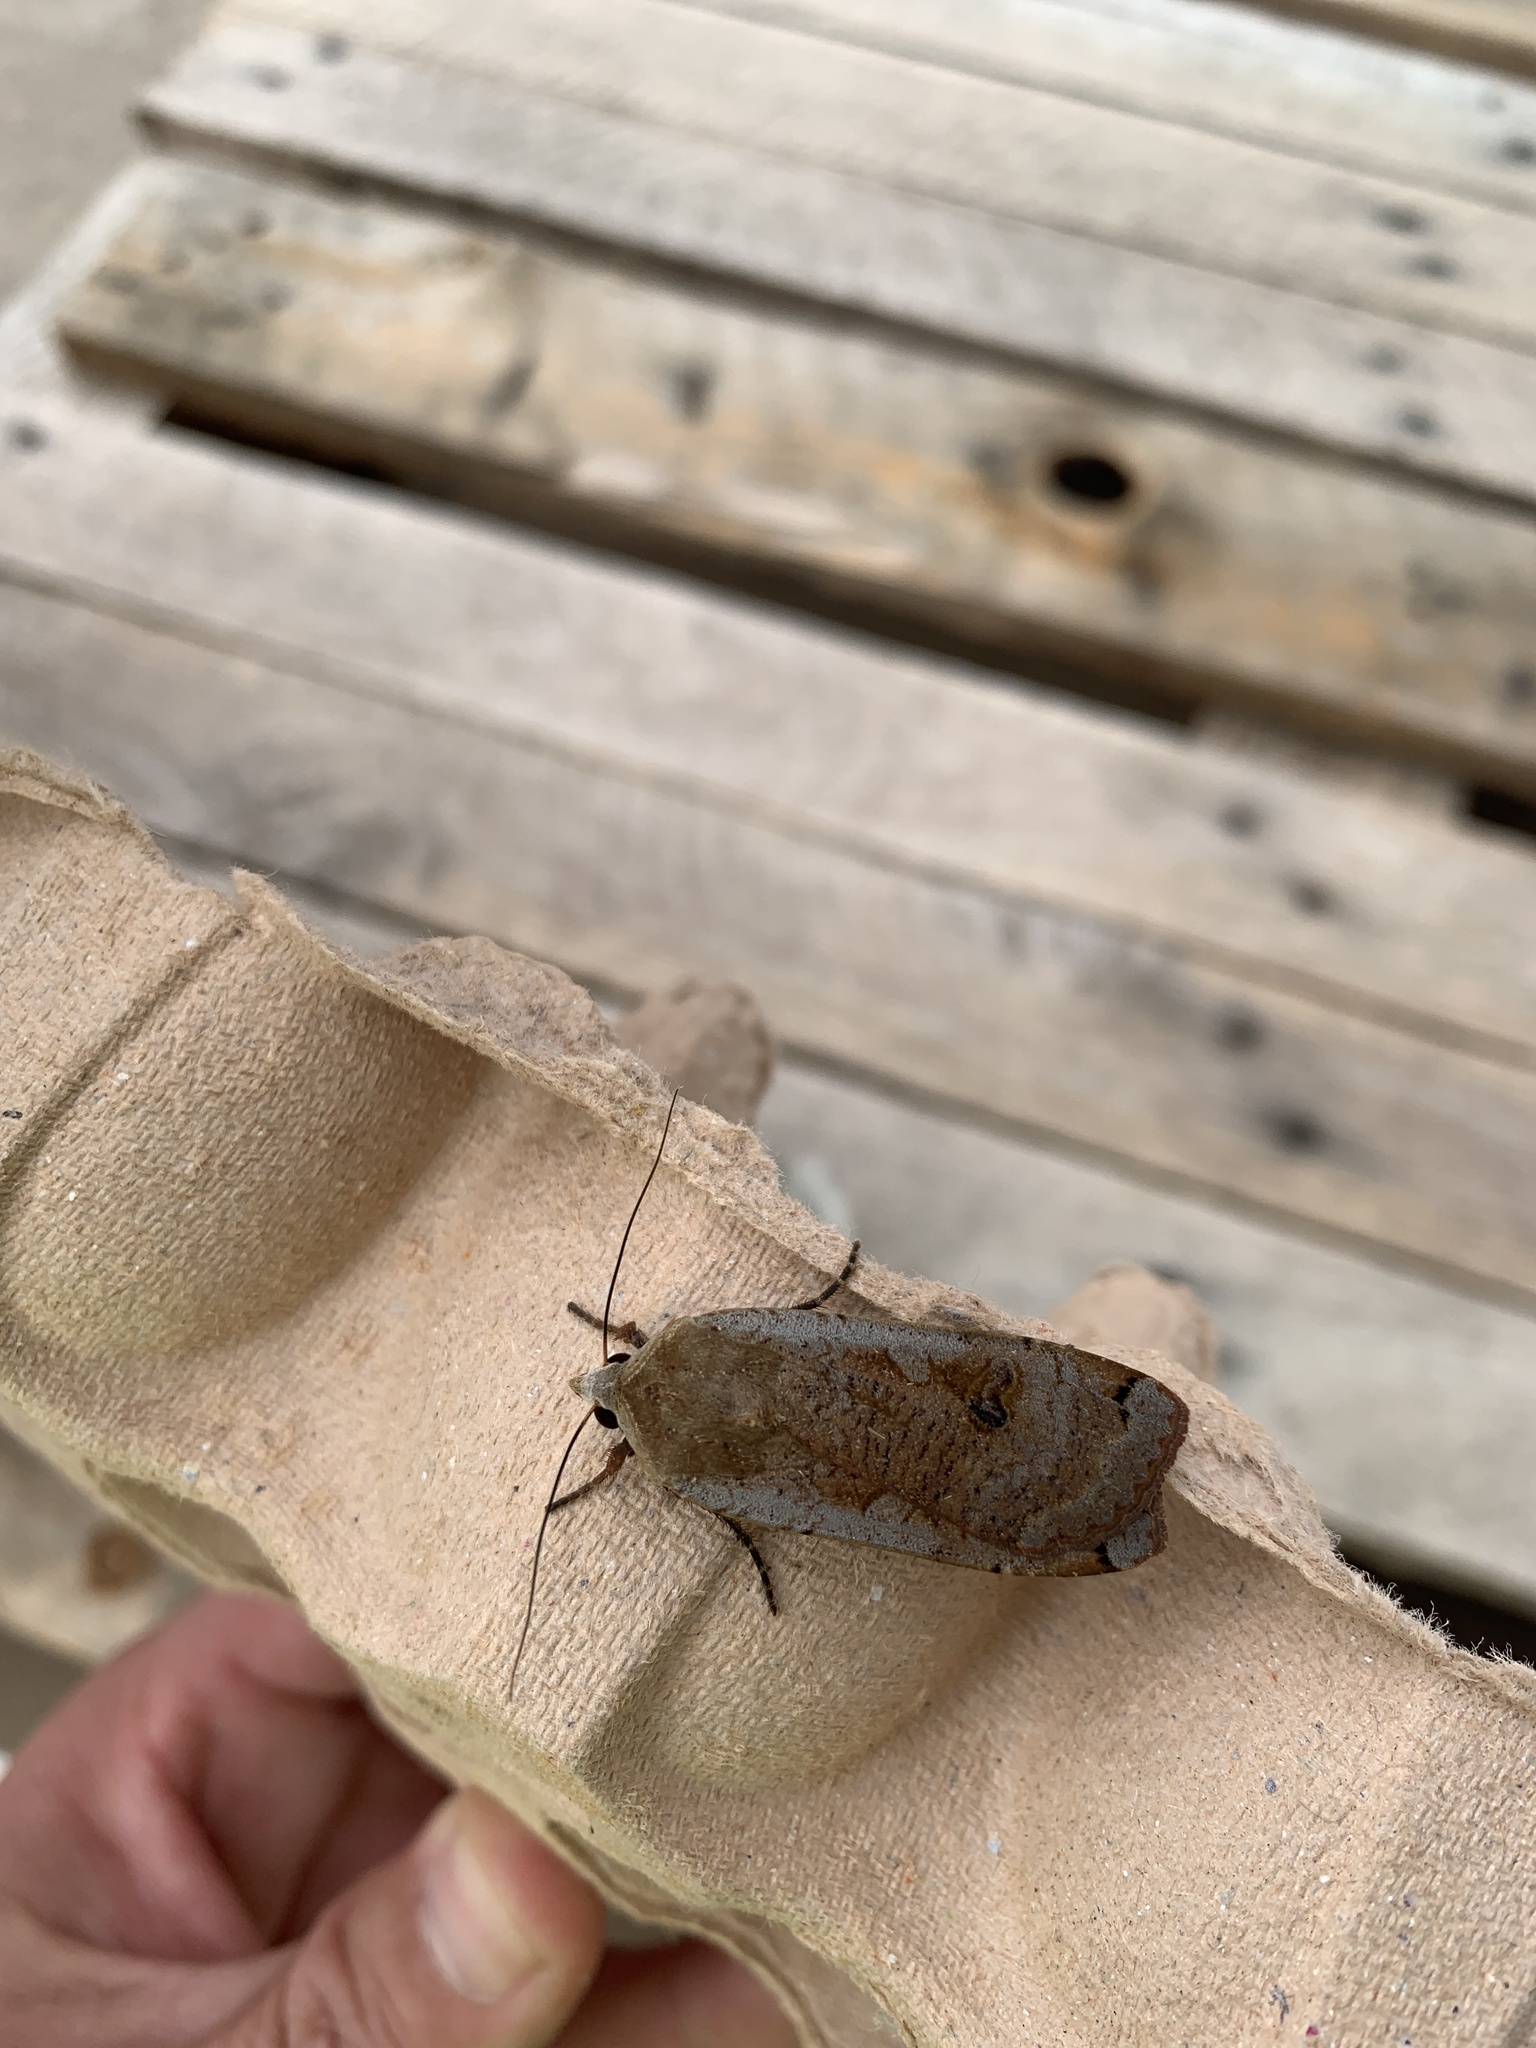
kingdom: Animalia
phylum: Arthropoda
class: Insecta
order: Lepidoptera
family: Noctuidae
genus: Noctua
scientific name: Noctua pronuba
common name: Large yellow underwing
